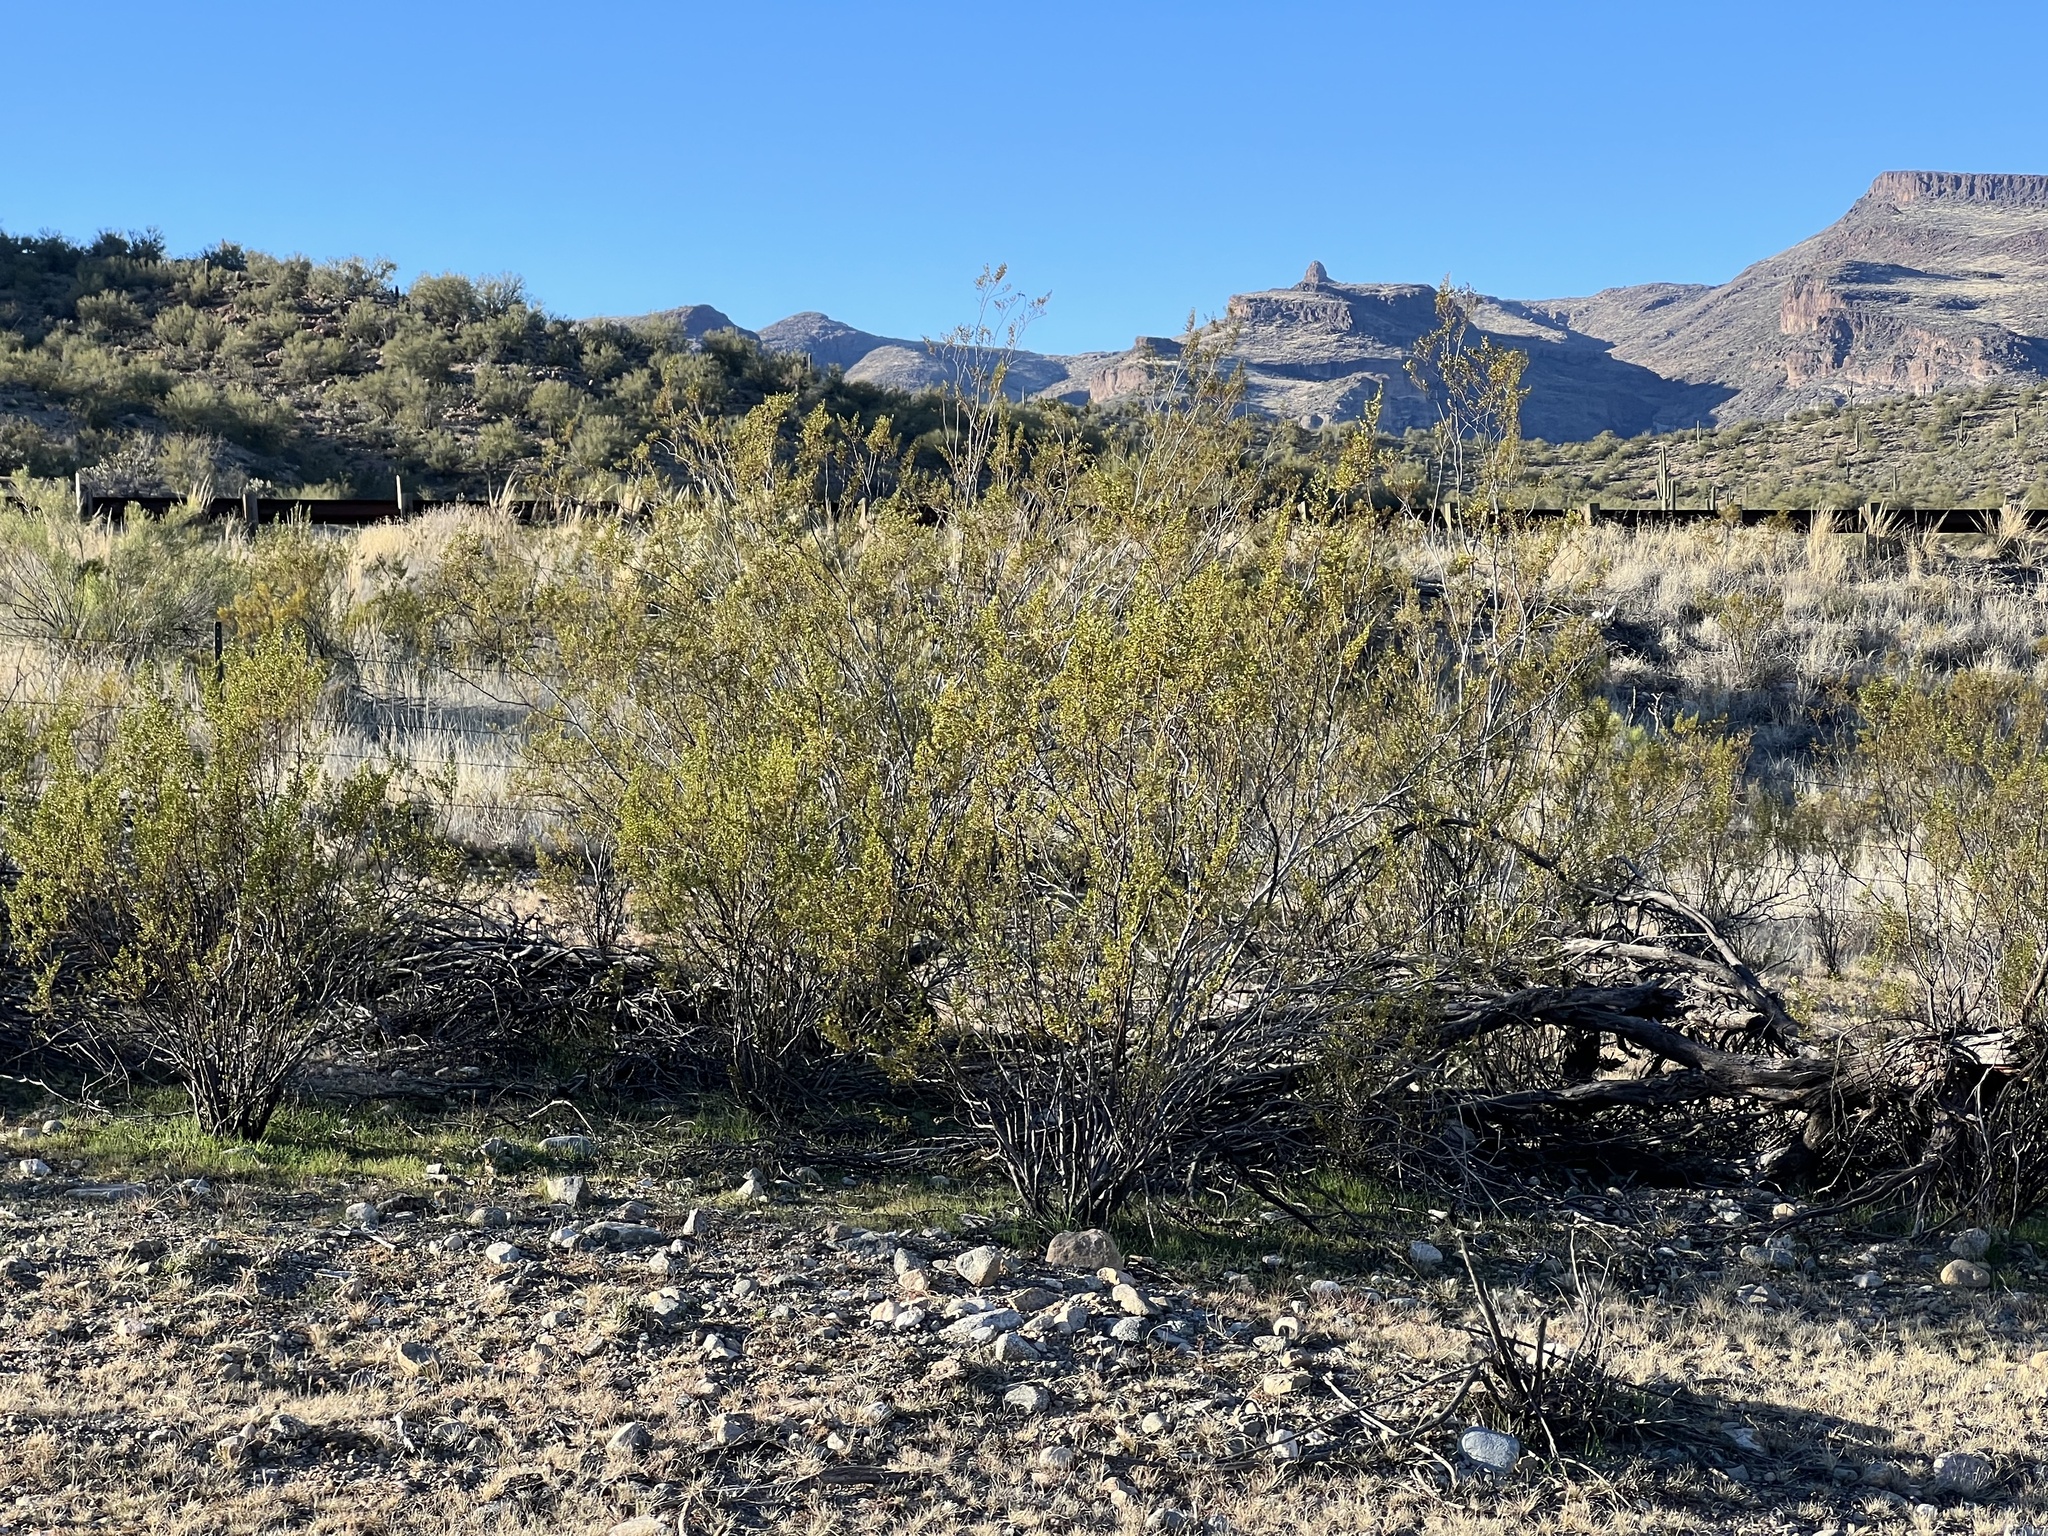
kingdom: Plantae
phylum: Tracheophyta
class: Magnoliopsida
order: Zygophyllales
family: Zygophyllaceae
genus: Larrea
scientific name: Larrea tridentata
